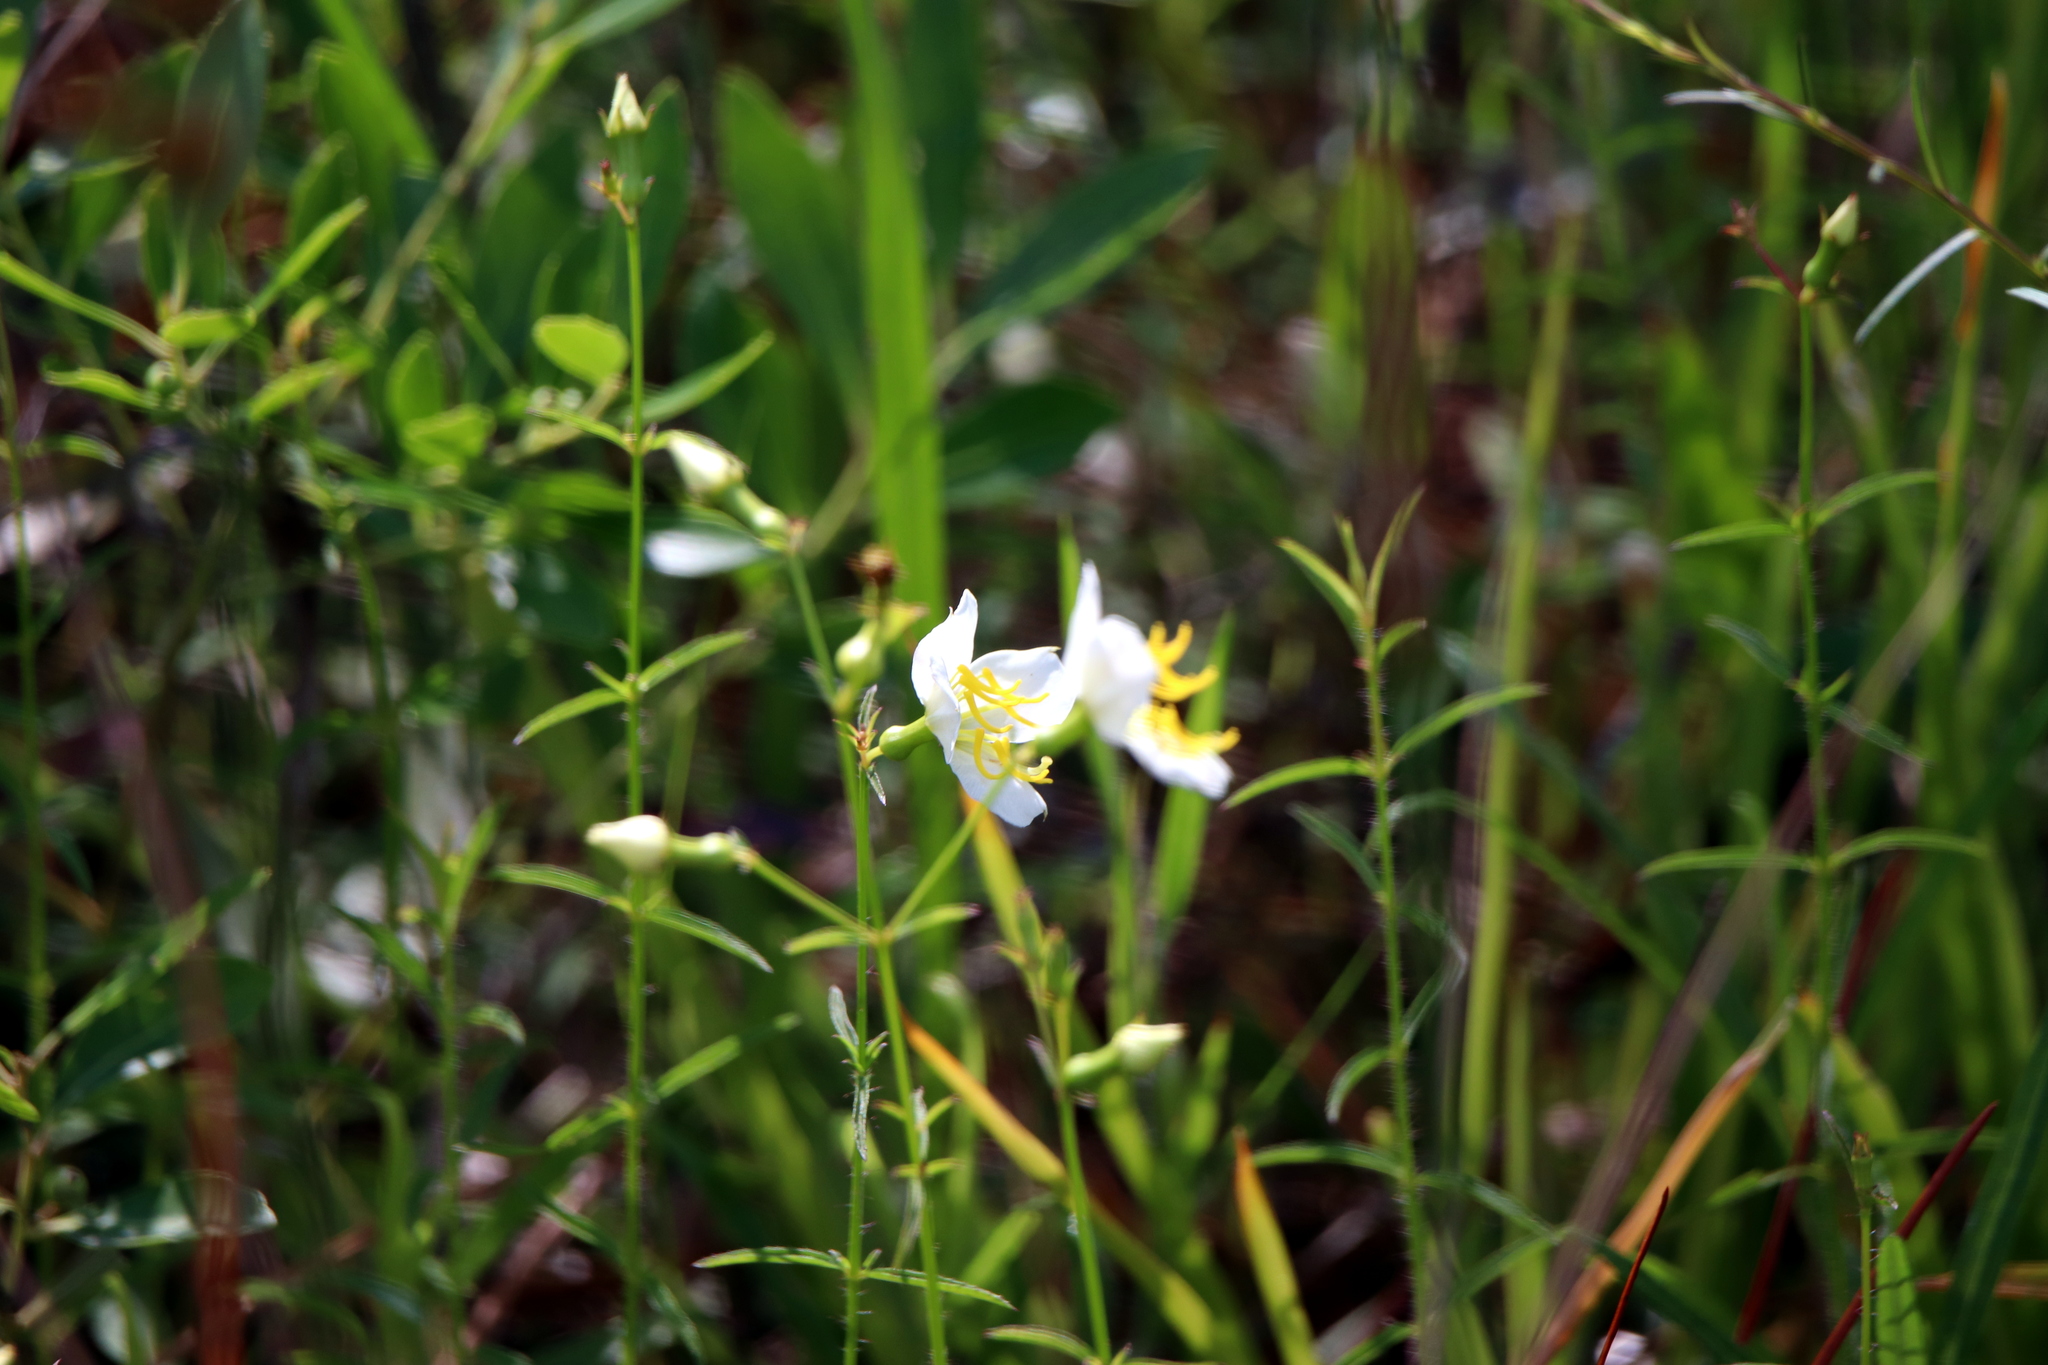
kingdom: Plantae
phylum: Tracheophyta
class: Magnoliopsida
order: Myrtales
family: Melastomataceae
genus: Rhexia
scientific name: Rhexia mariana
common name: Dull meadow-pitcher
